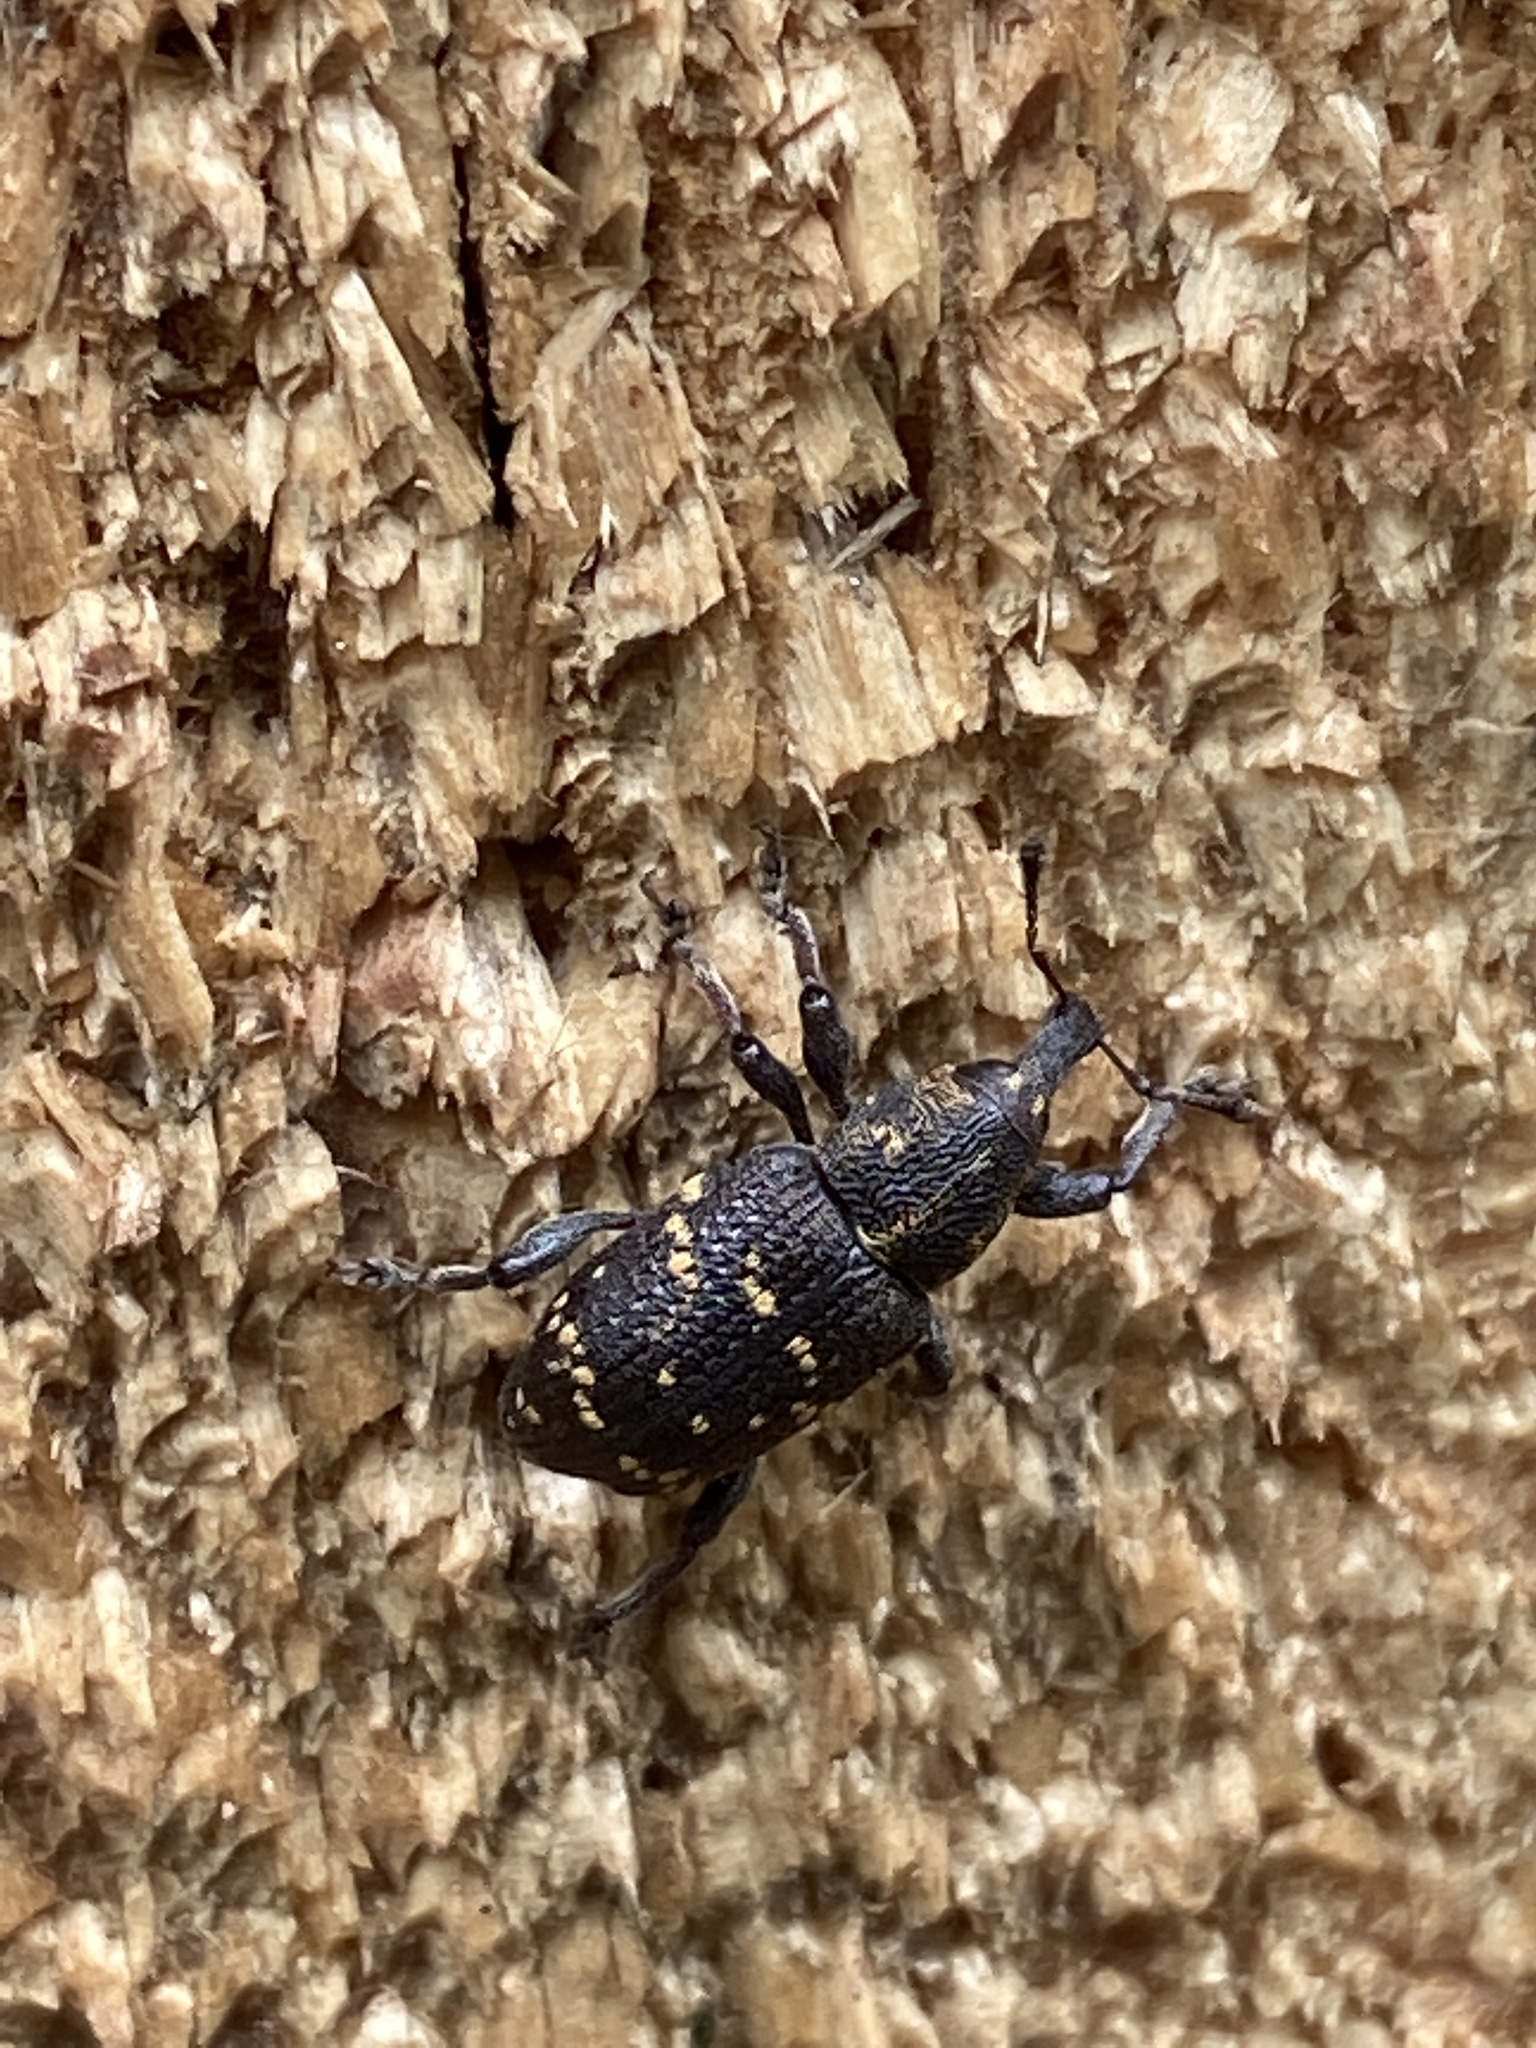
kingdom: Animalia
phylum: Arthropoda
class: Insecta
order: Coleoptera
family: Curculionidae
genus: Hylobius
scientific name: Hylobius abietis
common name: Large pine weevil
